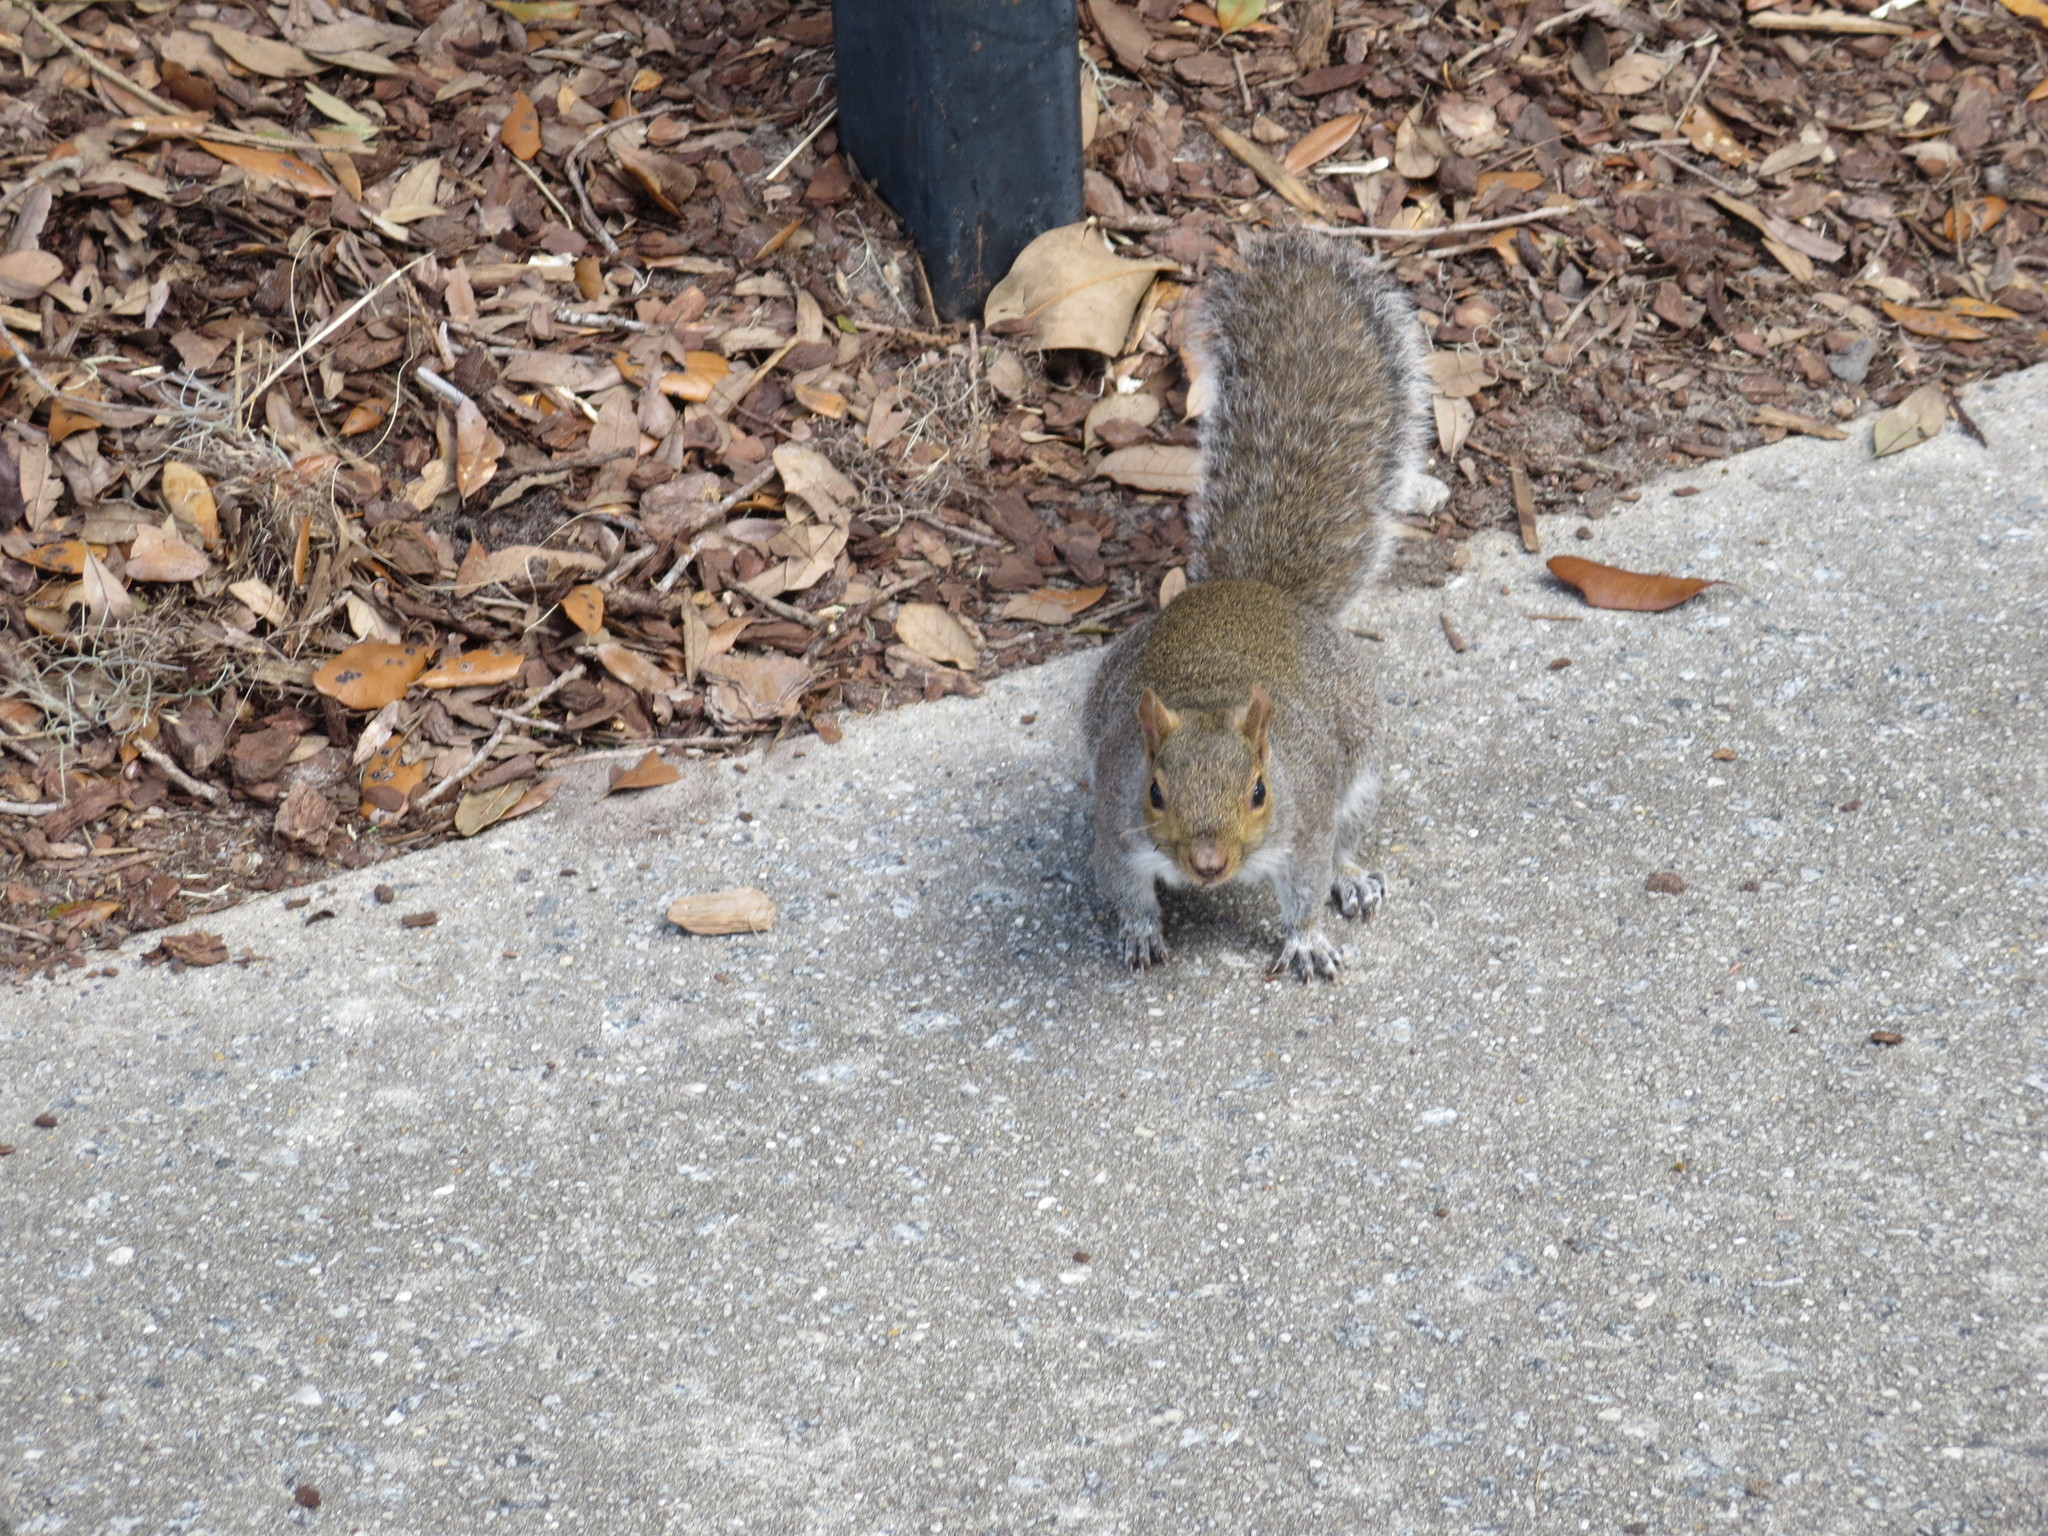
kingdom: Animalia
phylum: Chordata
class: Mammalia
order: Rodentia
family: Sciuridae
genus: Sciurus
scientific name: Sciurus carolinensis
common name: Eastern gray squirrel
